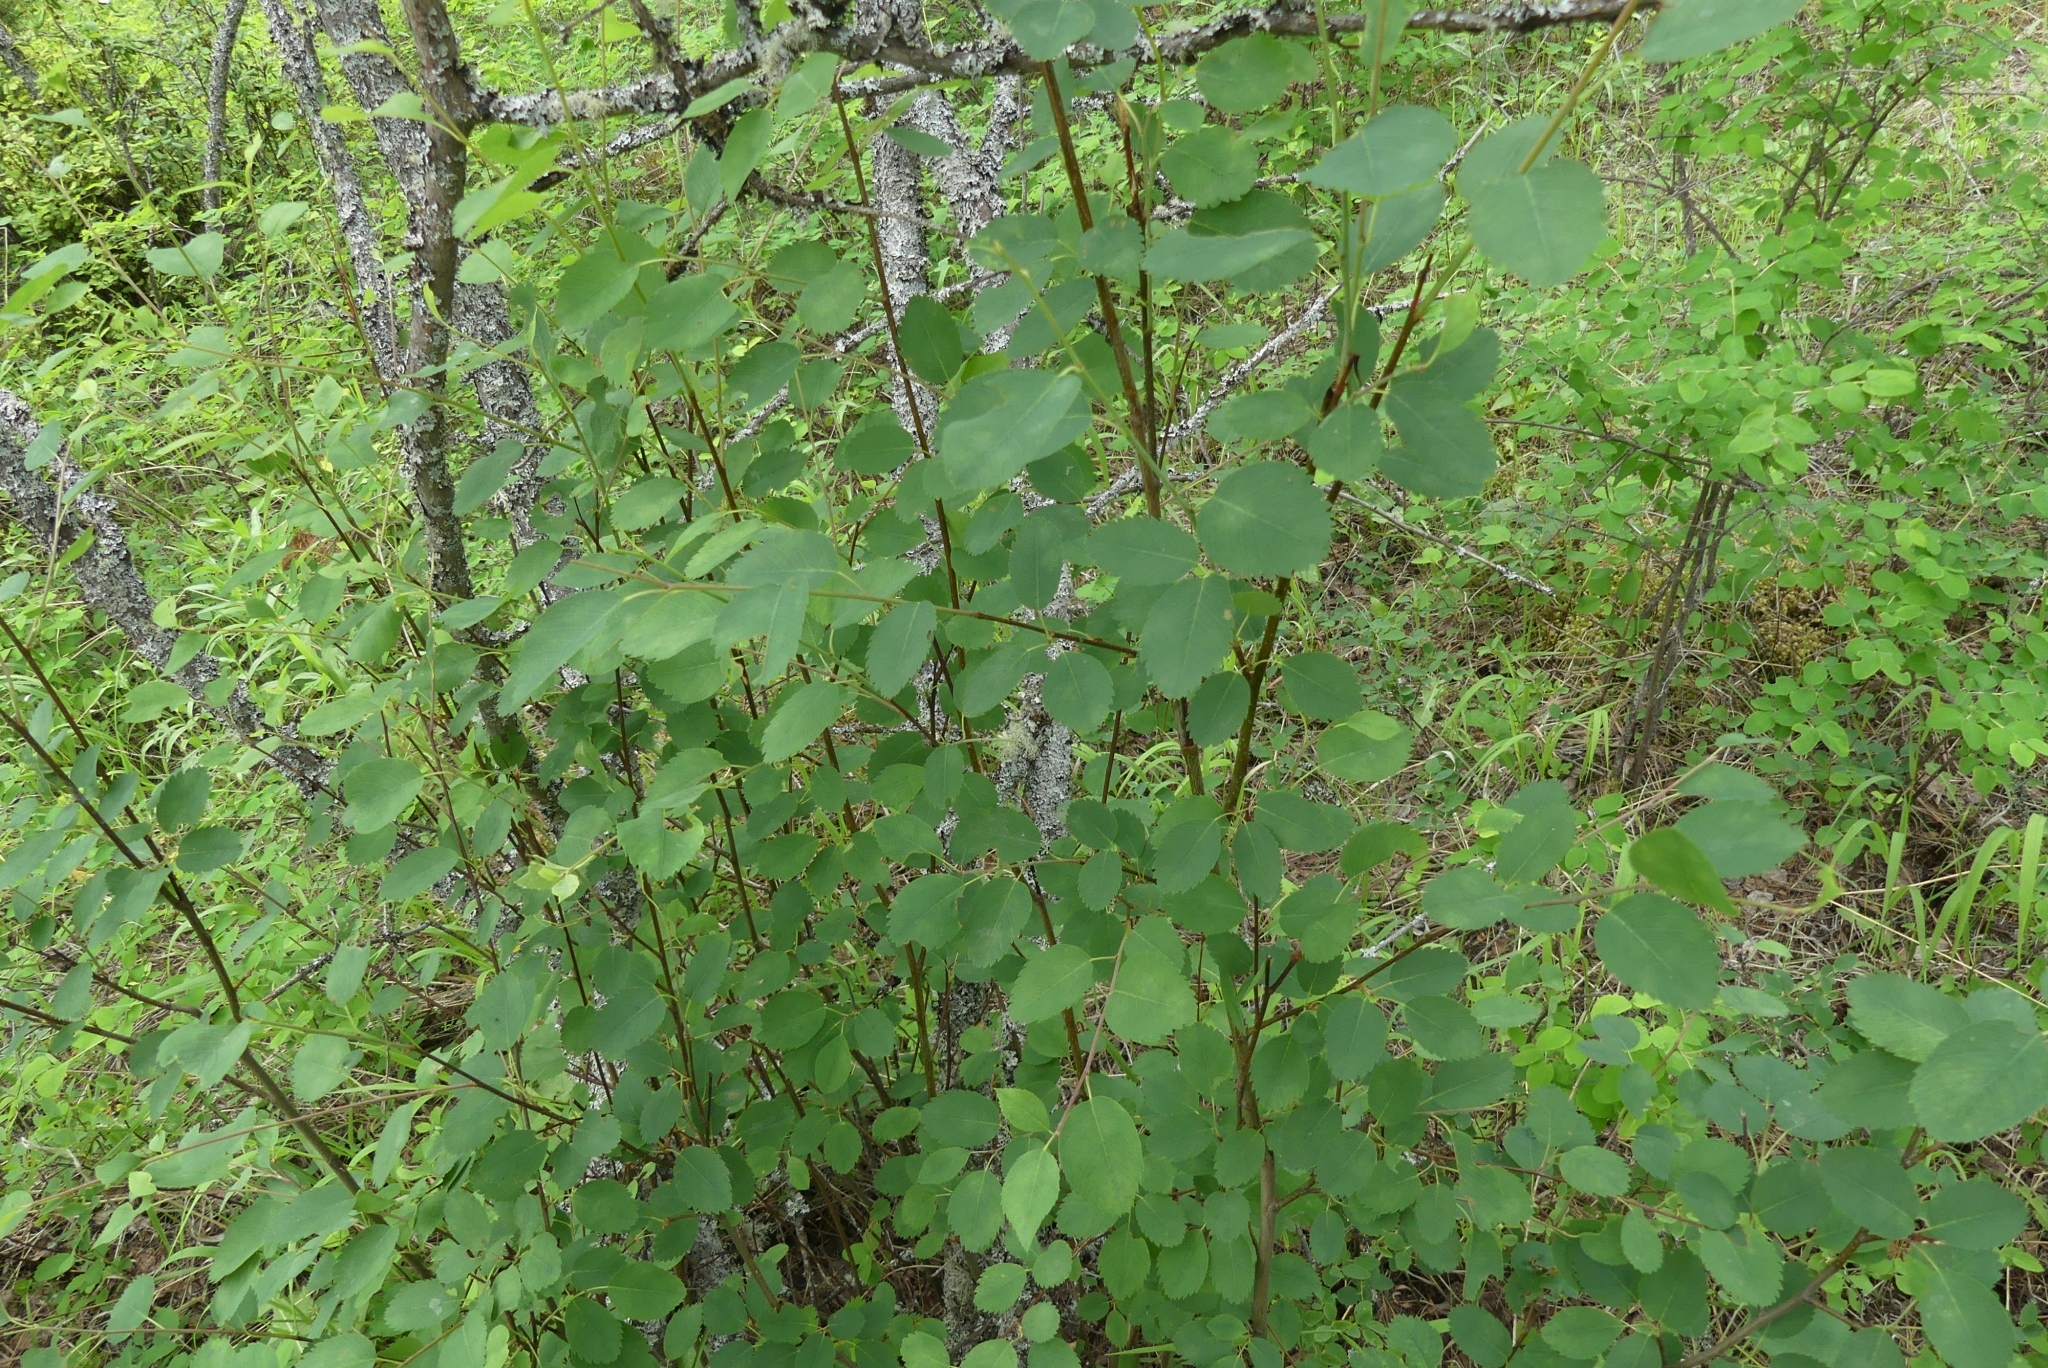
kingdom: Plantae
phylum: Tracheophyta
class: Magnoliopsida
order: Rosales
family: Rosaceae
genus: Amelanchier
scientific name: Amelanchier alnifolia
